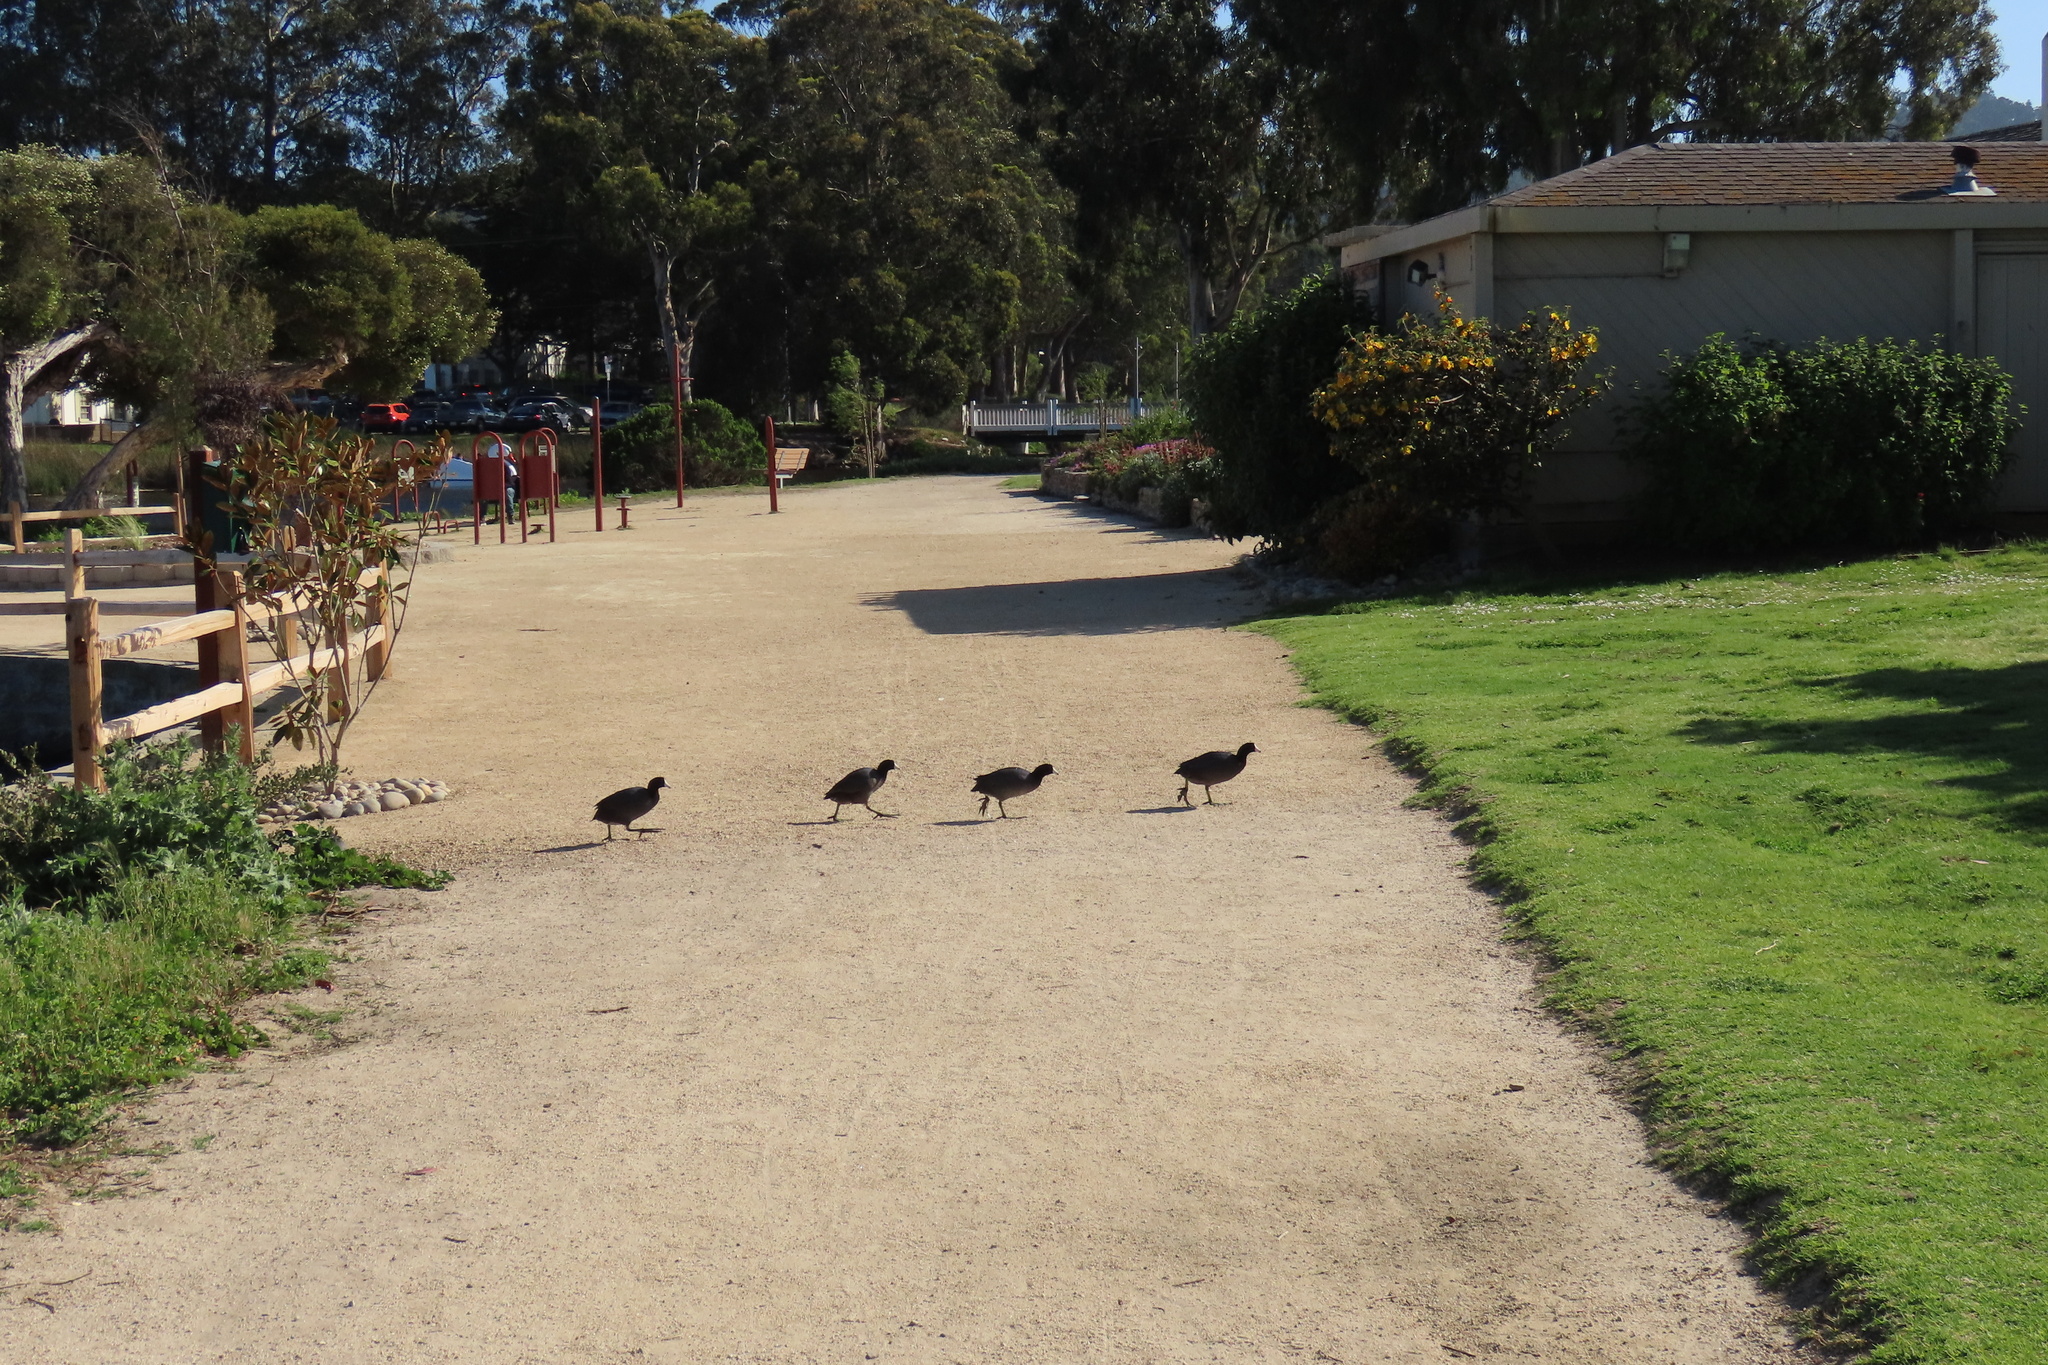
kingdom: Animalia
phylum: Chordata
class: Aves
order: Gruiformes
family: Rallidae
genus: Fulica
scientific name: Fulica americana
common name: American coot
